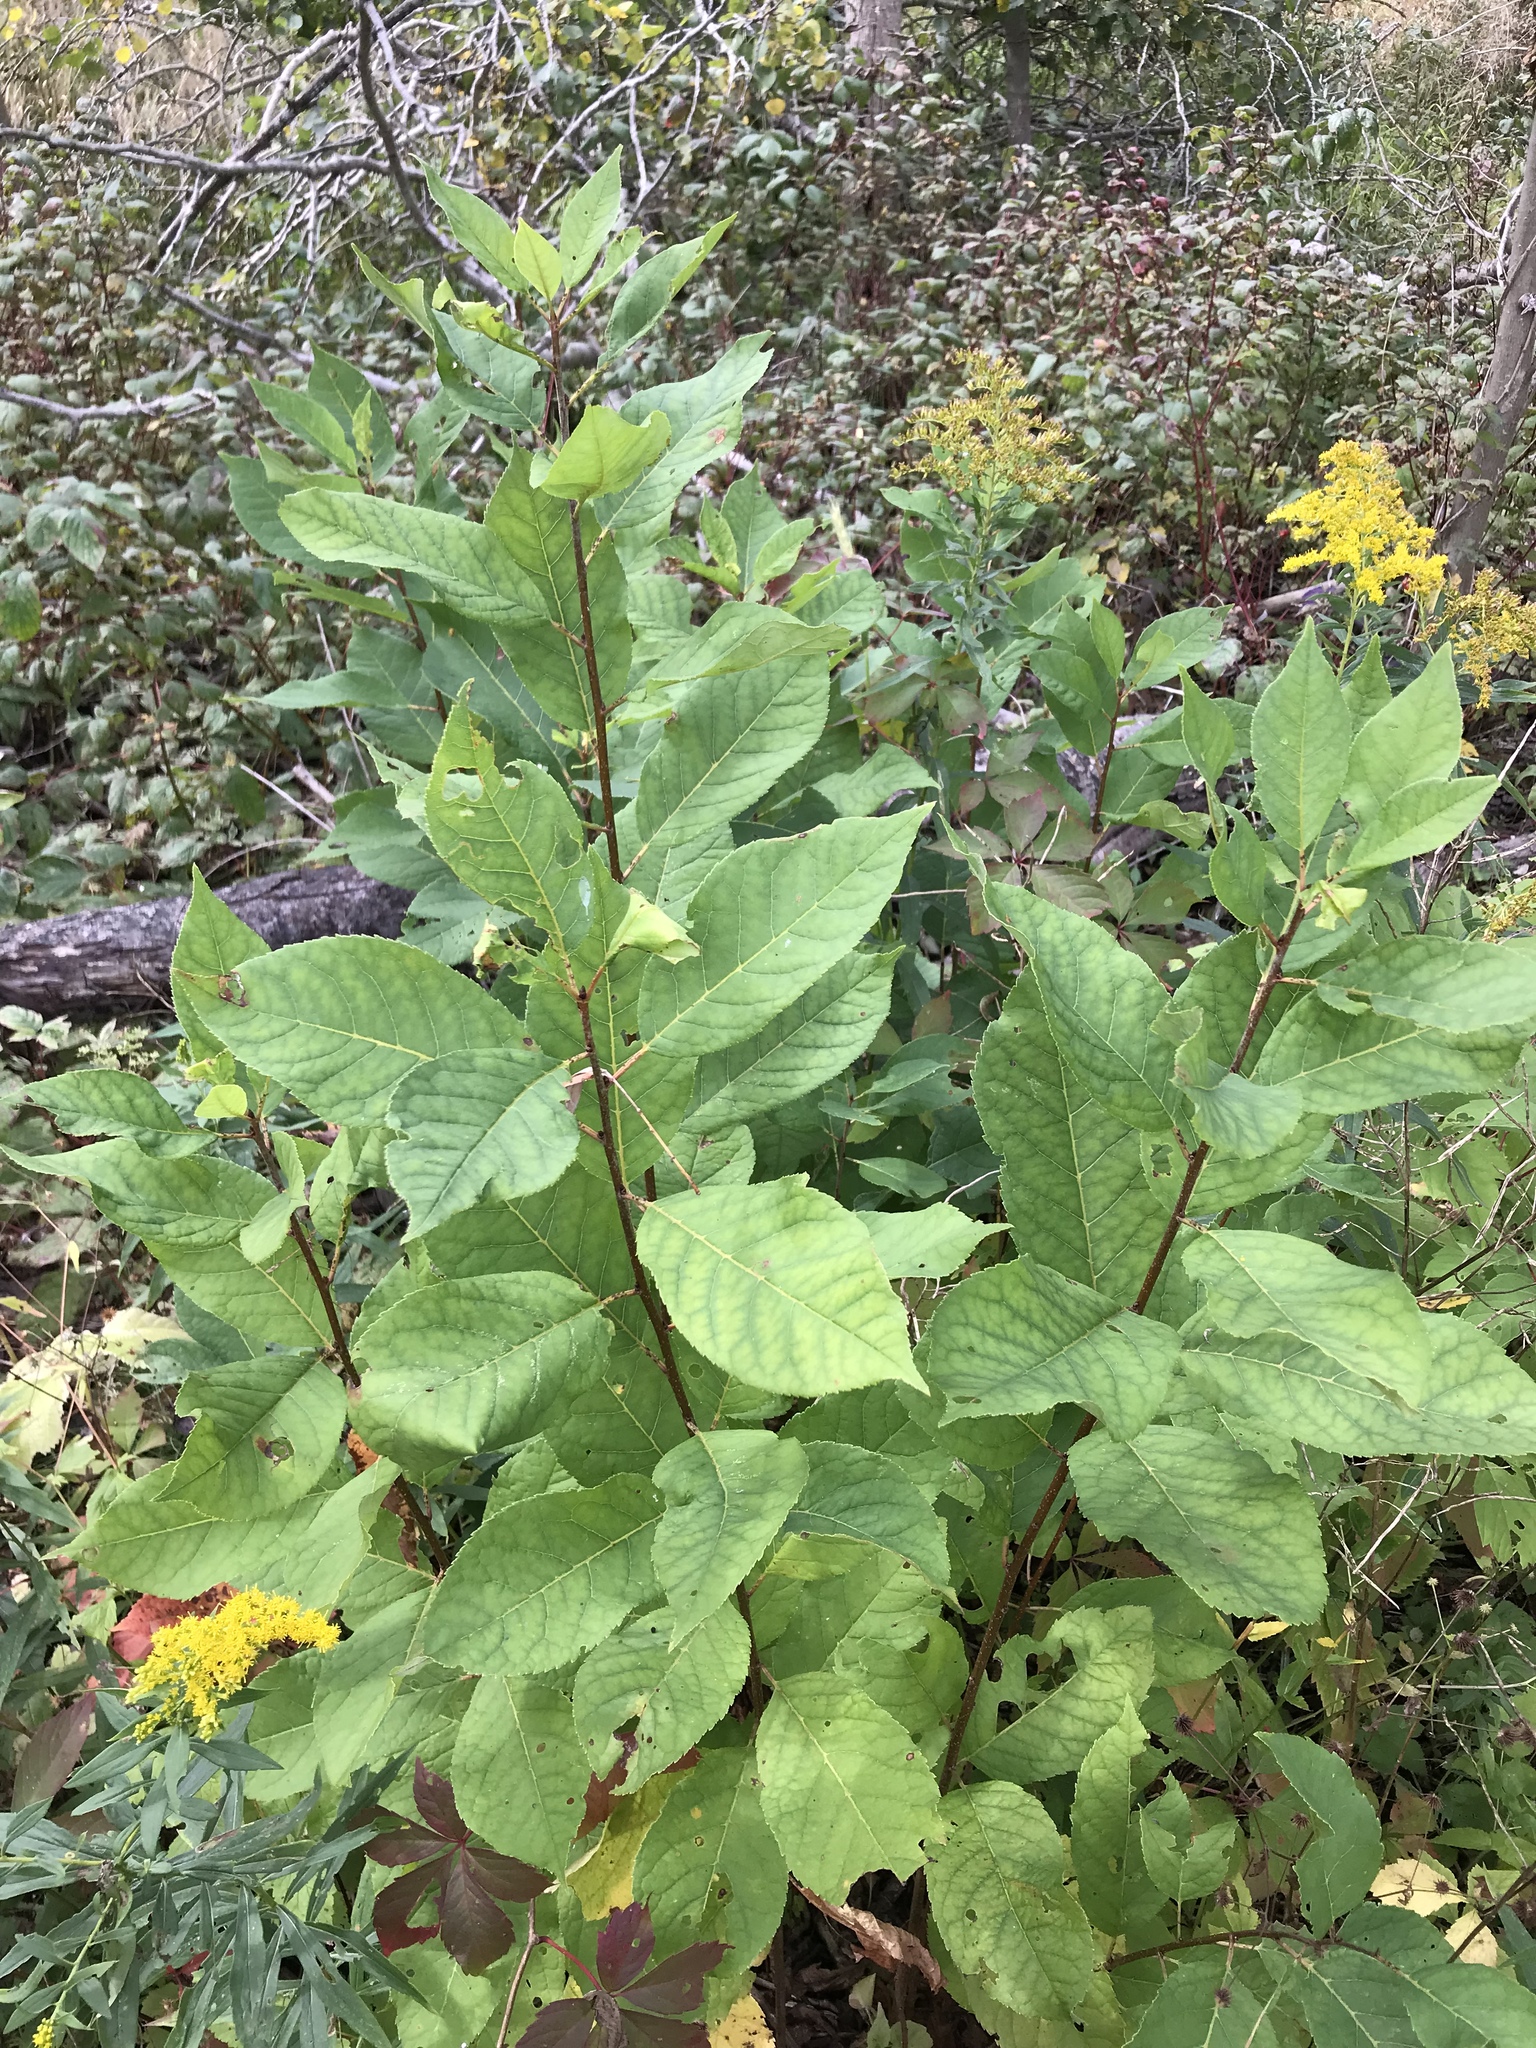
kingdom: Plantae
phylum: Tracheophyta
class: Magnoliopsida
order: Rosales
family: Rosaceae
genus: Prunus
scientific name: Prunus virginiana
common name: Chokecherry
